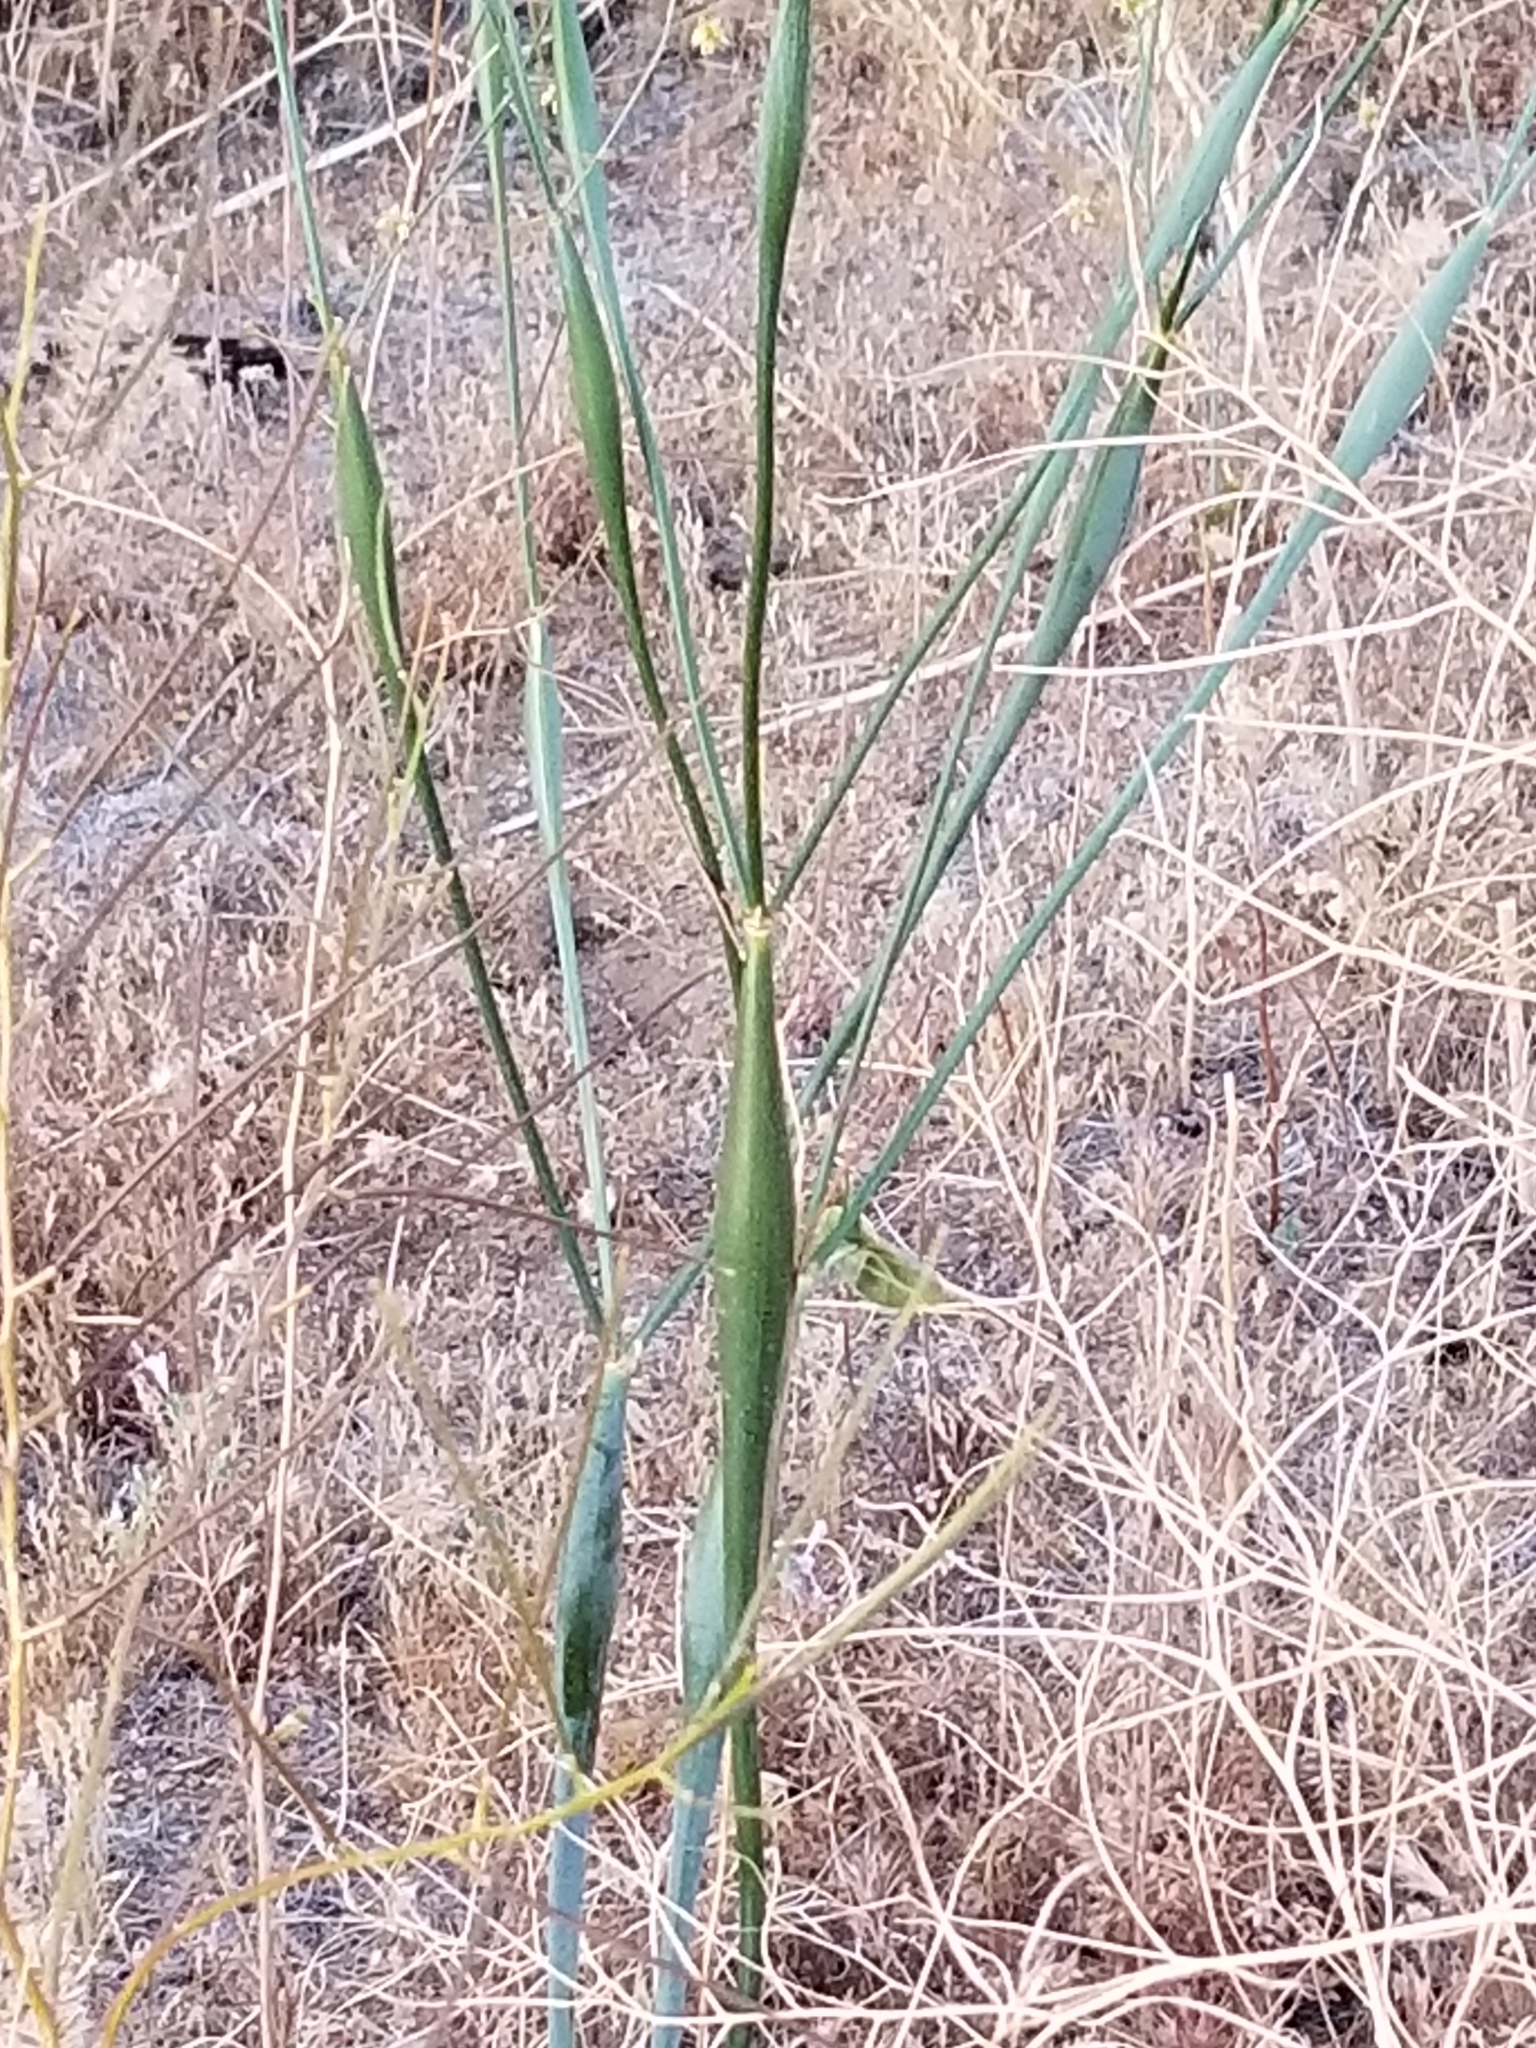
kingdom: Plantae
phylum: Tracheophyta
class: Magnoliopsida
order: Caryophyllales
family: Polygonaceae
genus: Eriogonum
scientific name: Eriogonum inflatum
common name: Desert trumpet
